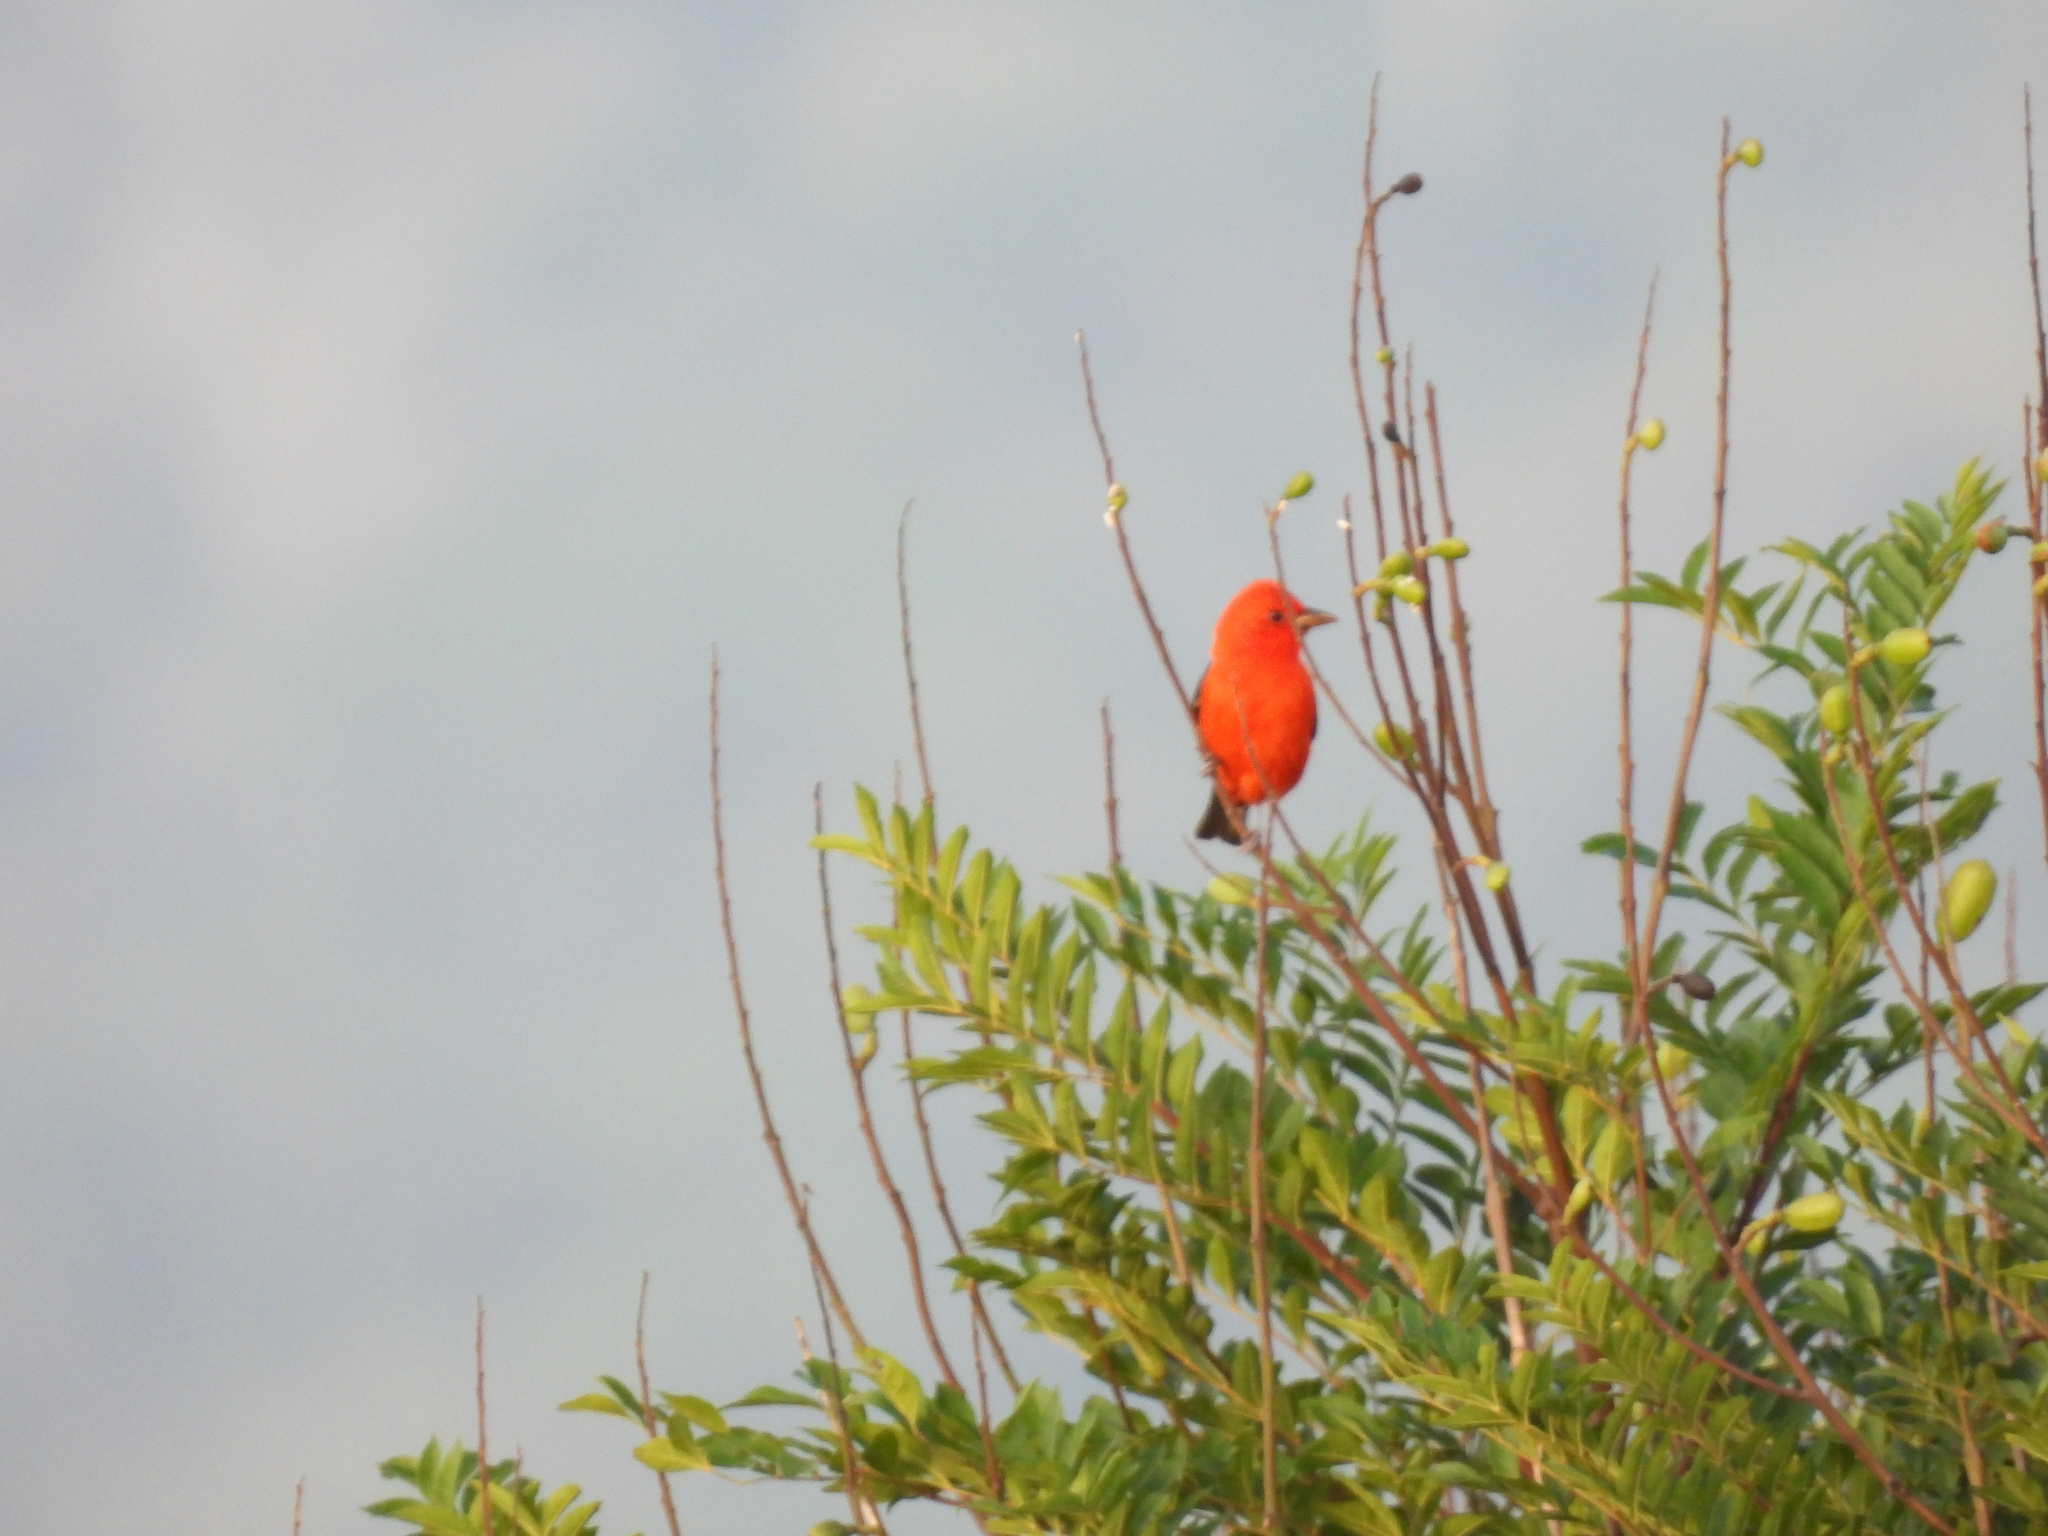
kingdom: Animalia
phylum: Chordata
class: Aves
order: Passeriformes
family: Cardinalidae
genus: Piranga
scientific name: Piranga olivacea
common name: Scarlet tanager
